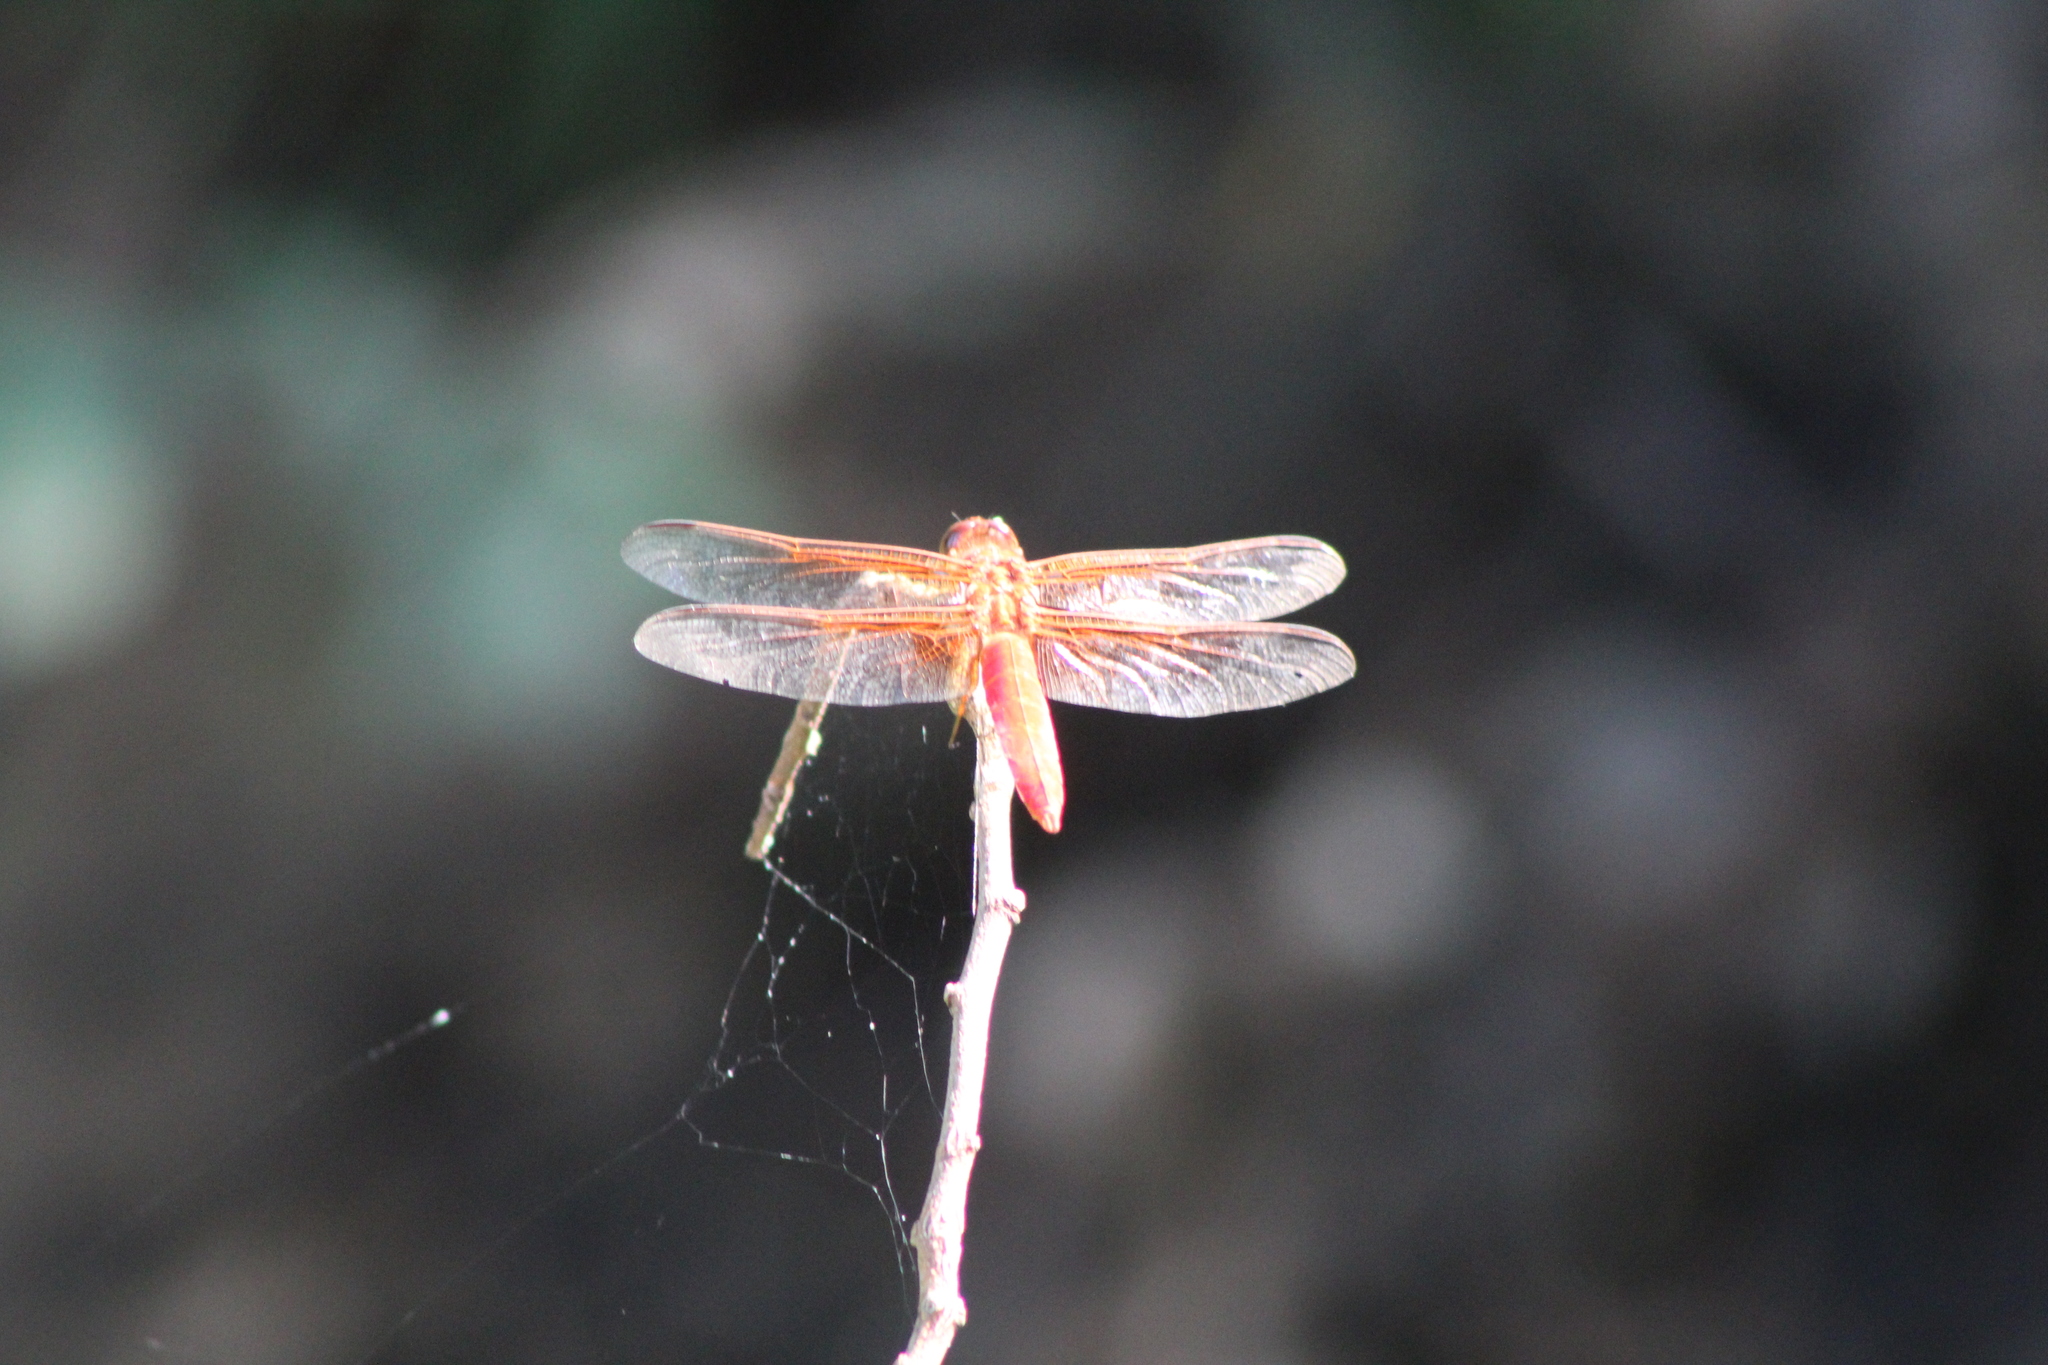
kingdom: Animalia
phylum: Arthropoda
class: Insecta
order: Odonata
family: Libellulidae
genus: Libellula
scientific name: Libellula croceipennis
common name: Neon skimmer
